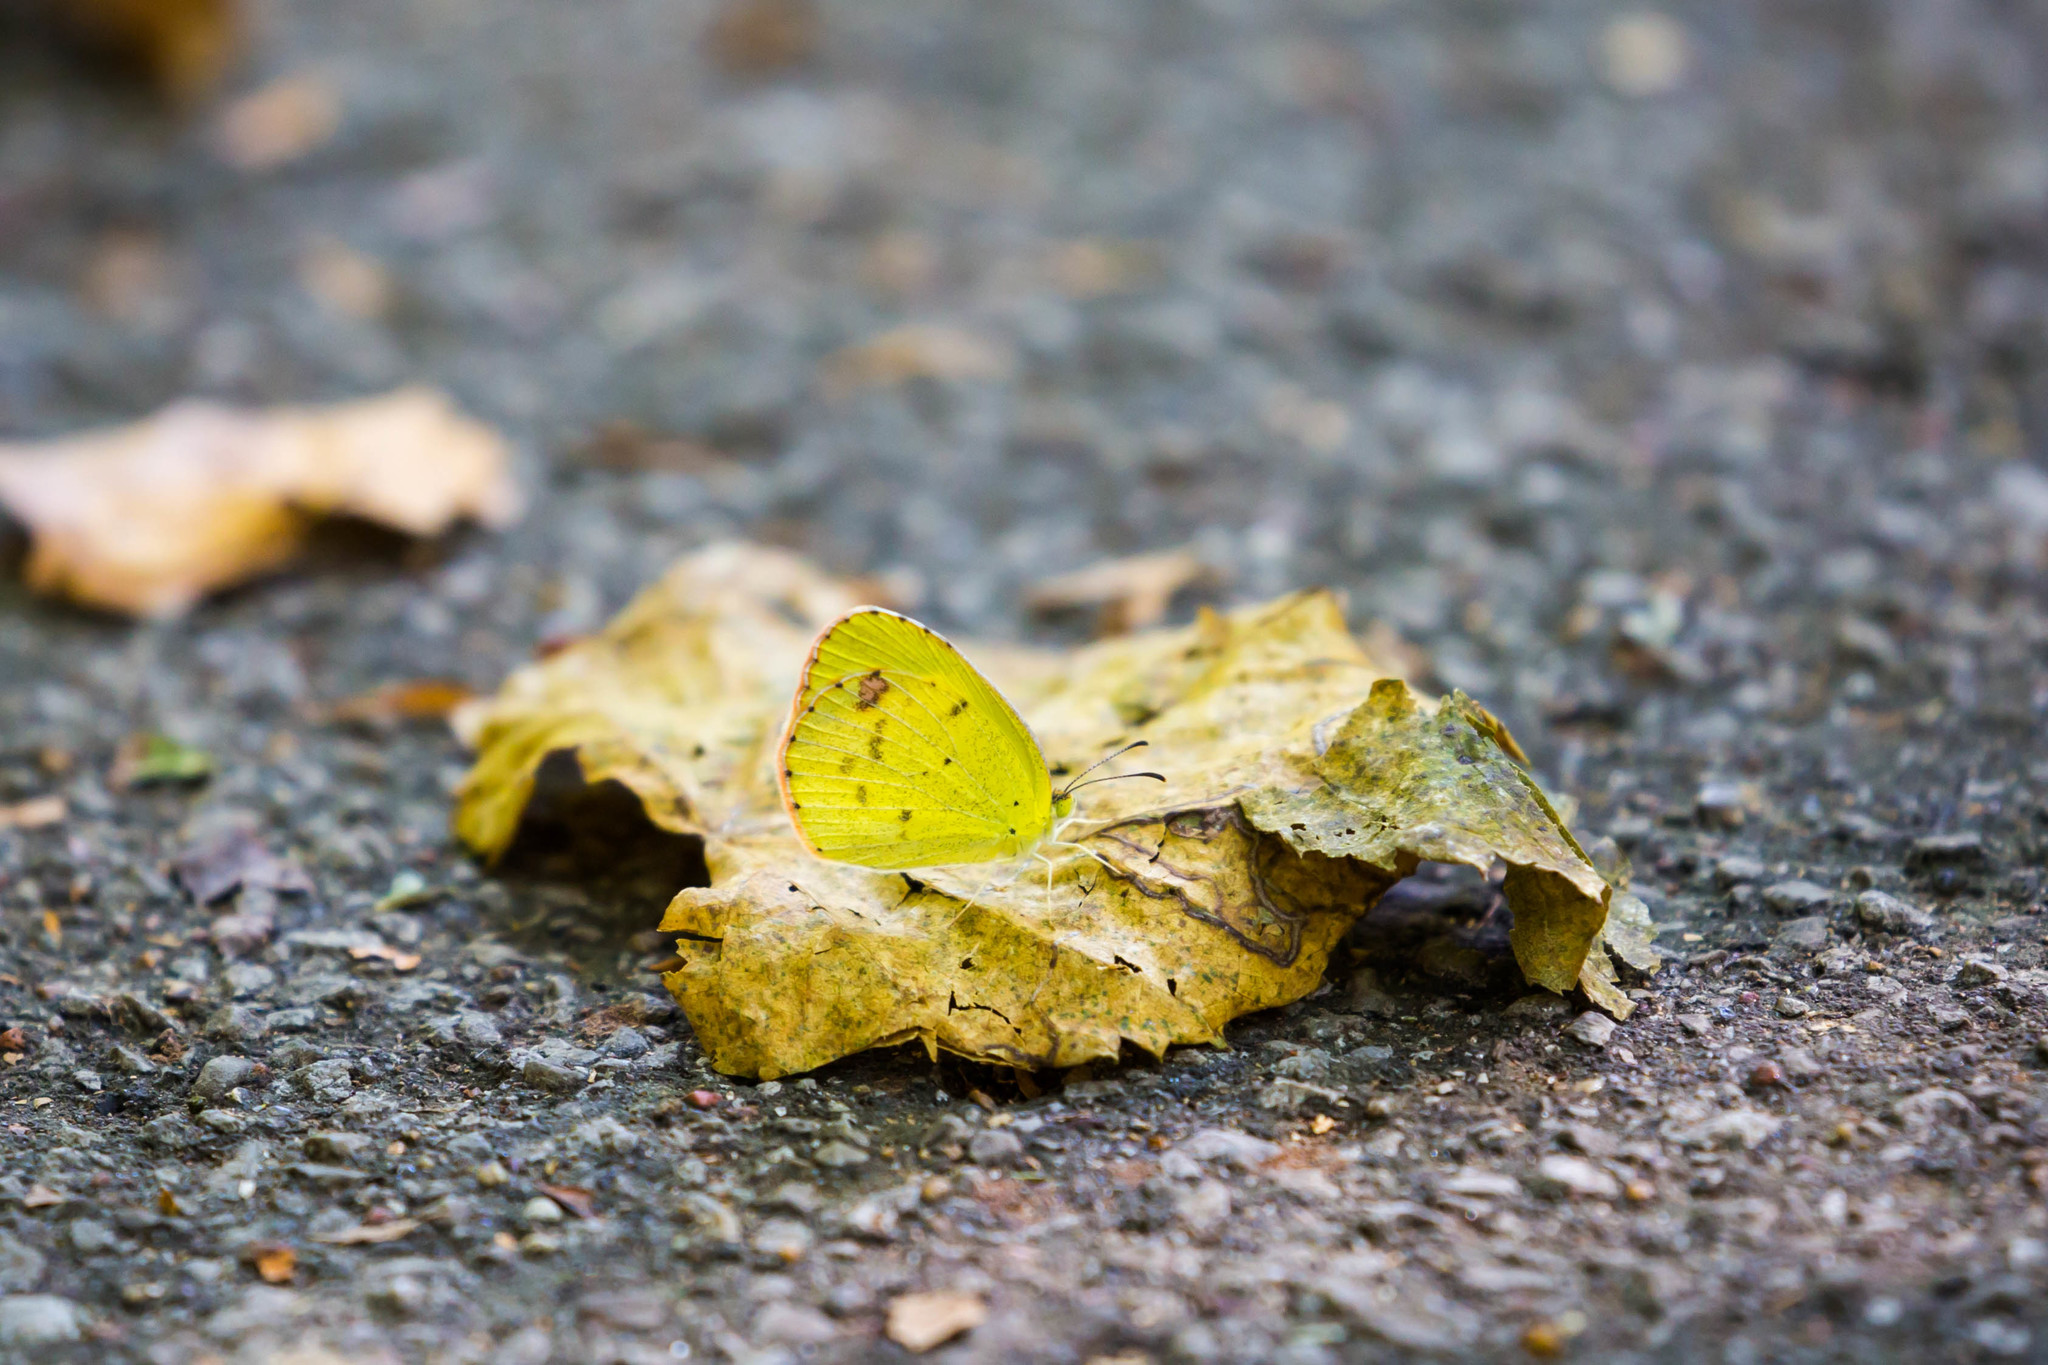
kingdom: Animalia
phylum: Arthropoda
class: Insecta
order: Lepidoptera
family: Pieridae
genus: Pyrisitia
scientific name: Pyrisitia lisa
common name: Little yellow
